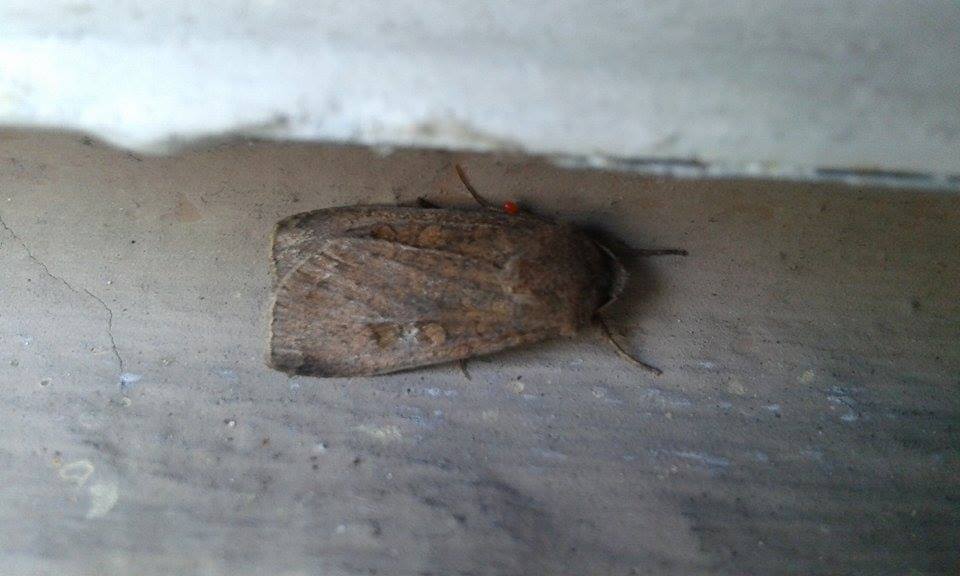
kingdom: Animalia
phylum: Arthropoda
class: Insecta
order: Lepidoptera
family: Noctuidae
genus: Xestia
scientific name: Xestia xanthographa
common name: Square-spot rustic
